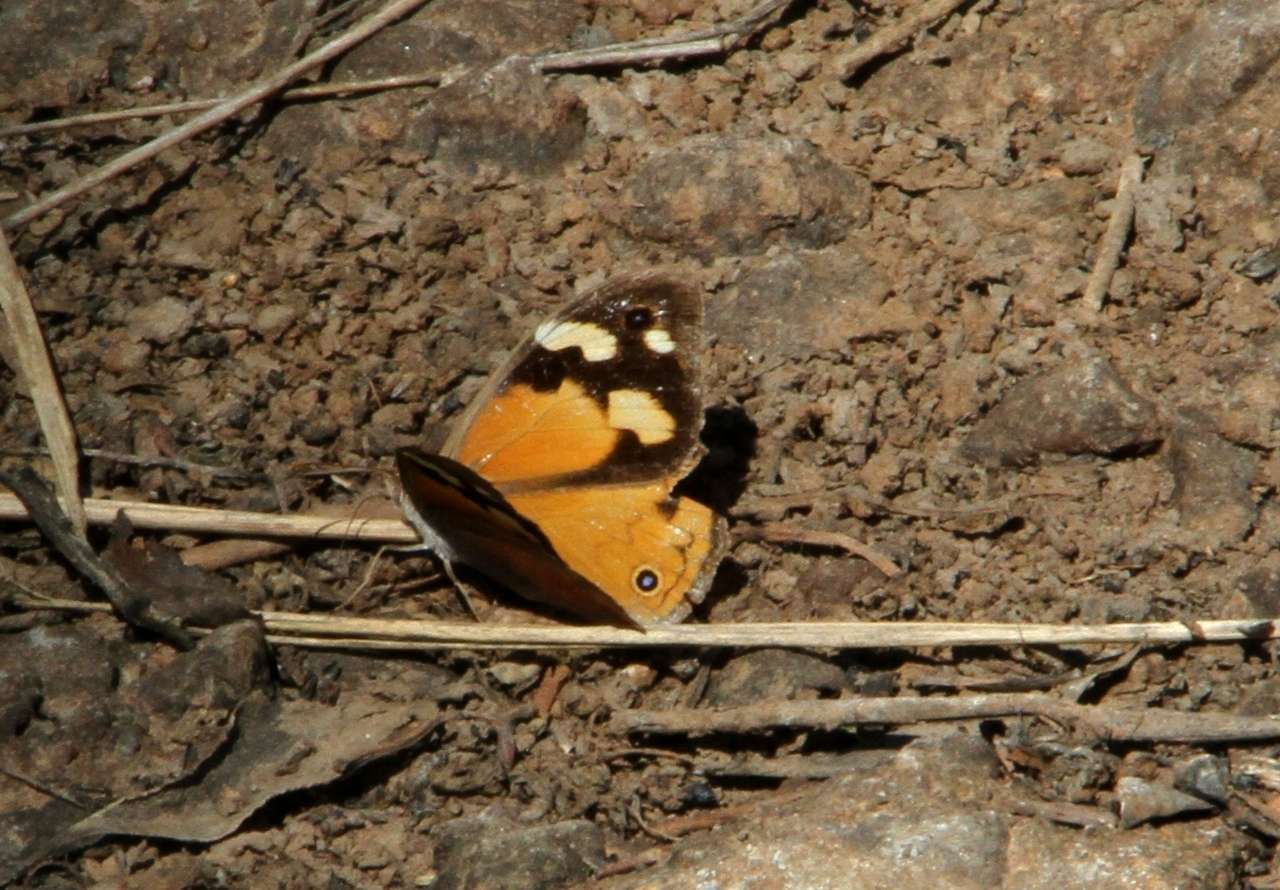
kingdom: Animalia
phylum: Arthropoda
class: Insecta
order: Lepidoptera
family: Nymphalidae
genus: Heteronympha
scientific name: Heteronympha merope
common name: Common brown
